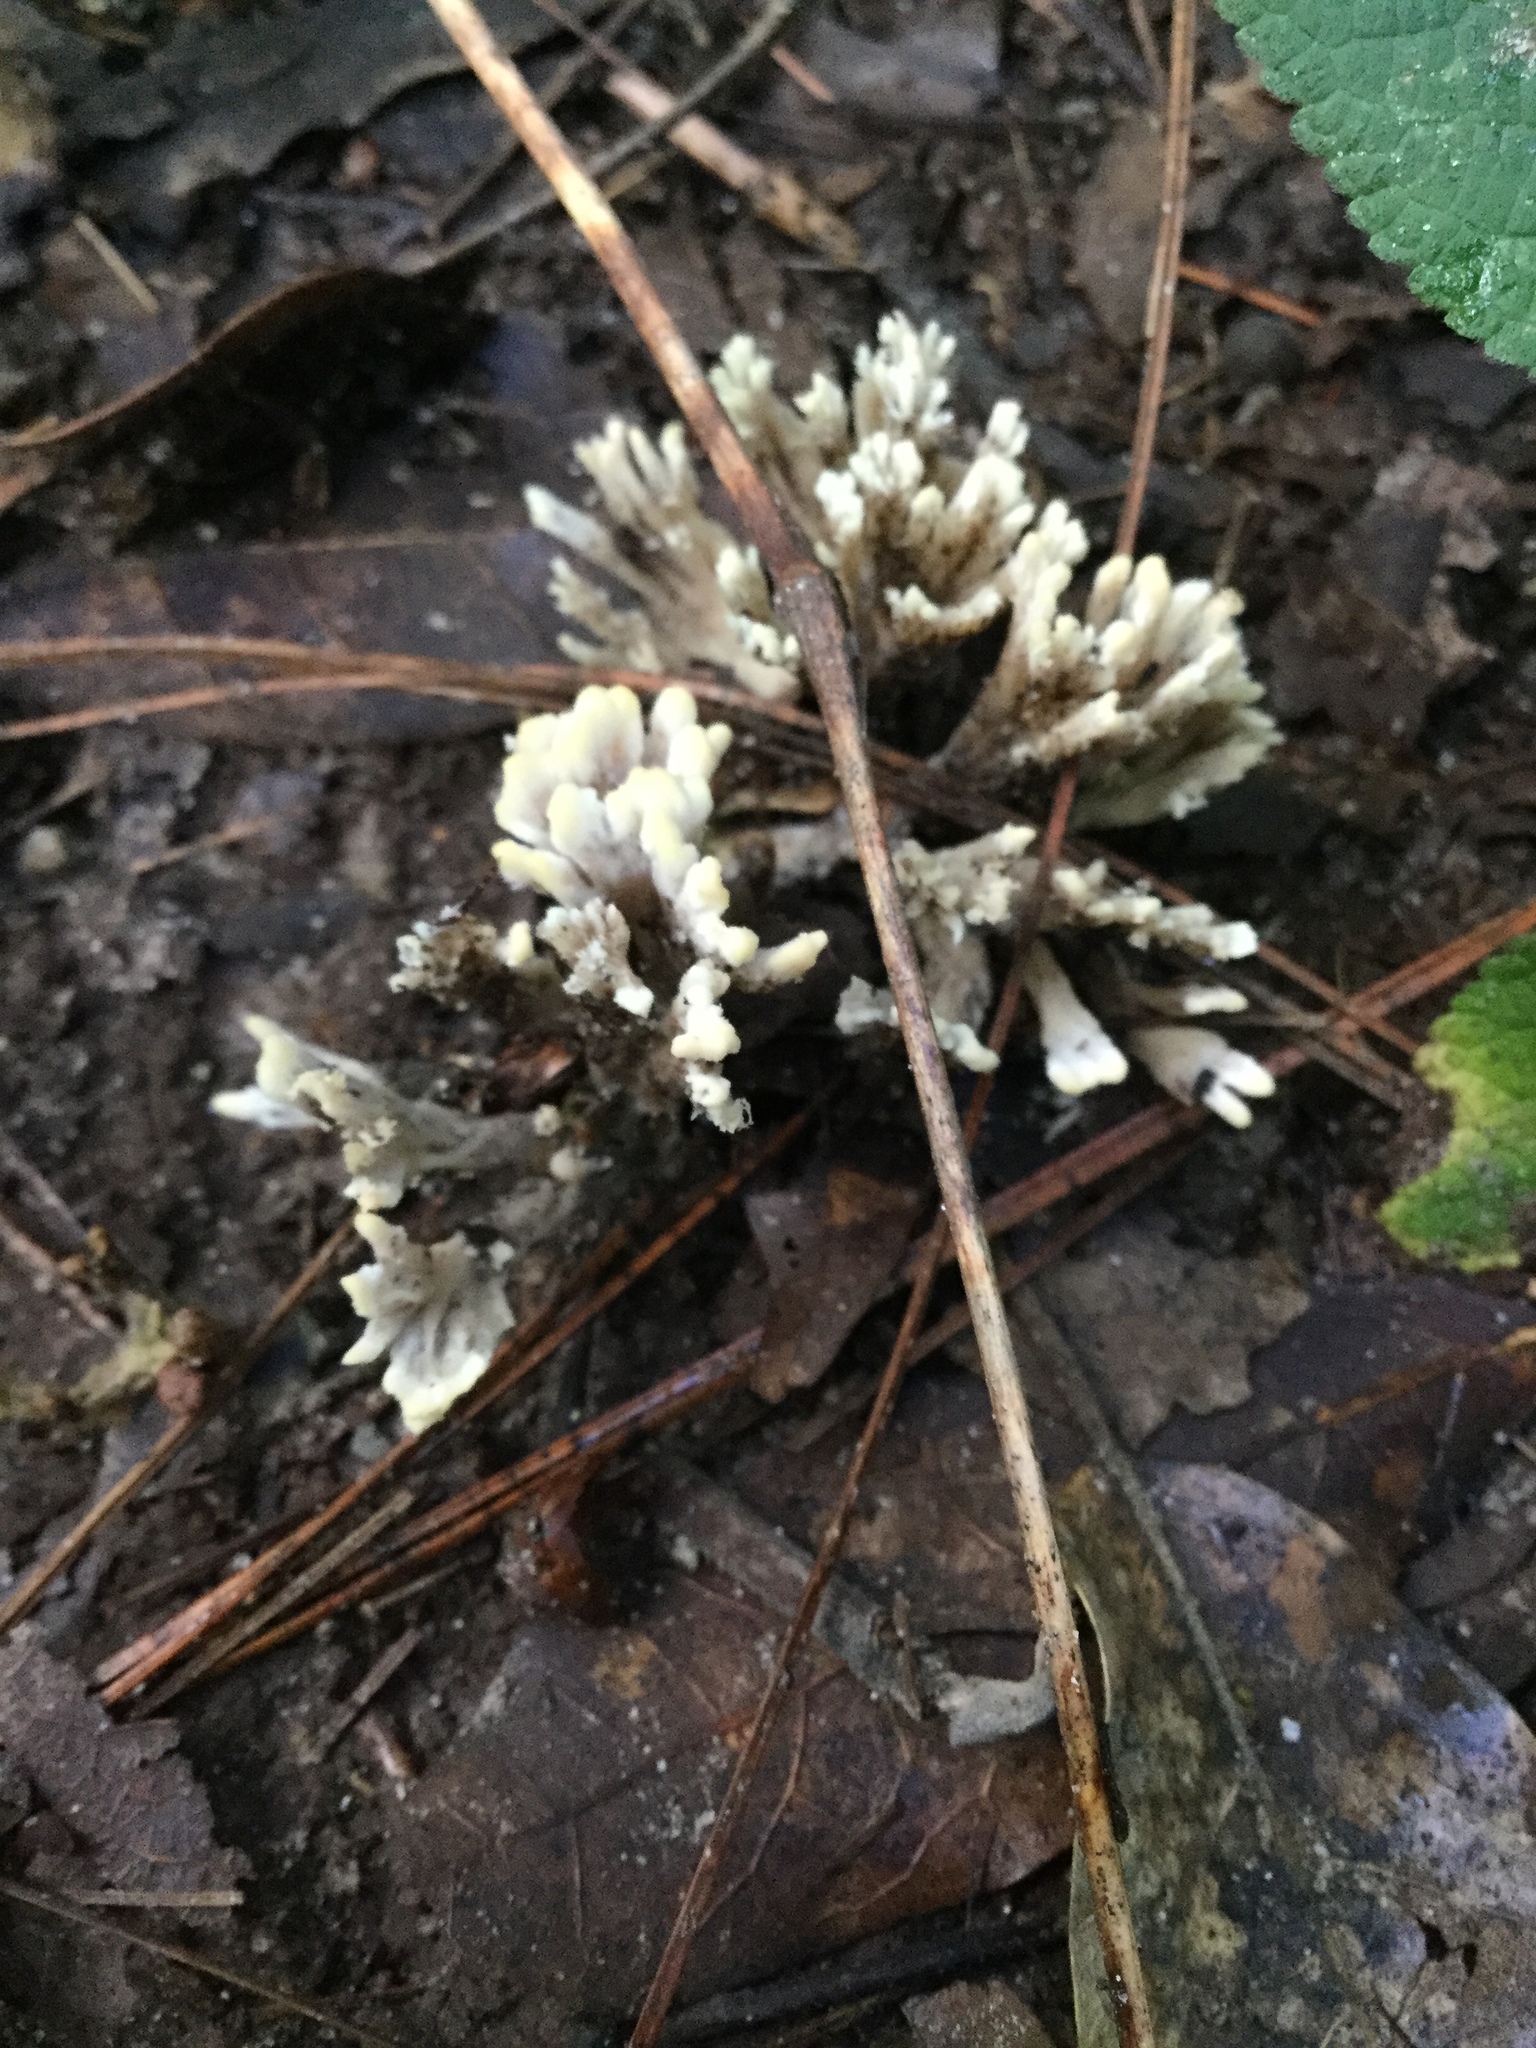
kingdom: Fungi
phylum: Basidiomycota
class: Agaricomycetes
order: Sebacinales
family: Sebacinaceae
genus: Sebacina
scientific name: Sebacina schweinitzii
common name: Jellied false coral fungus
